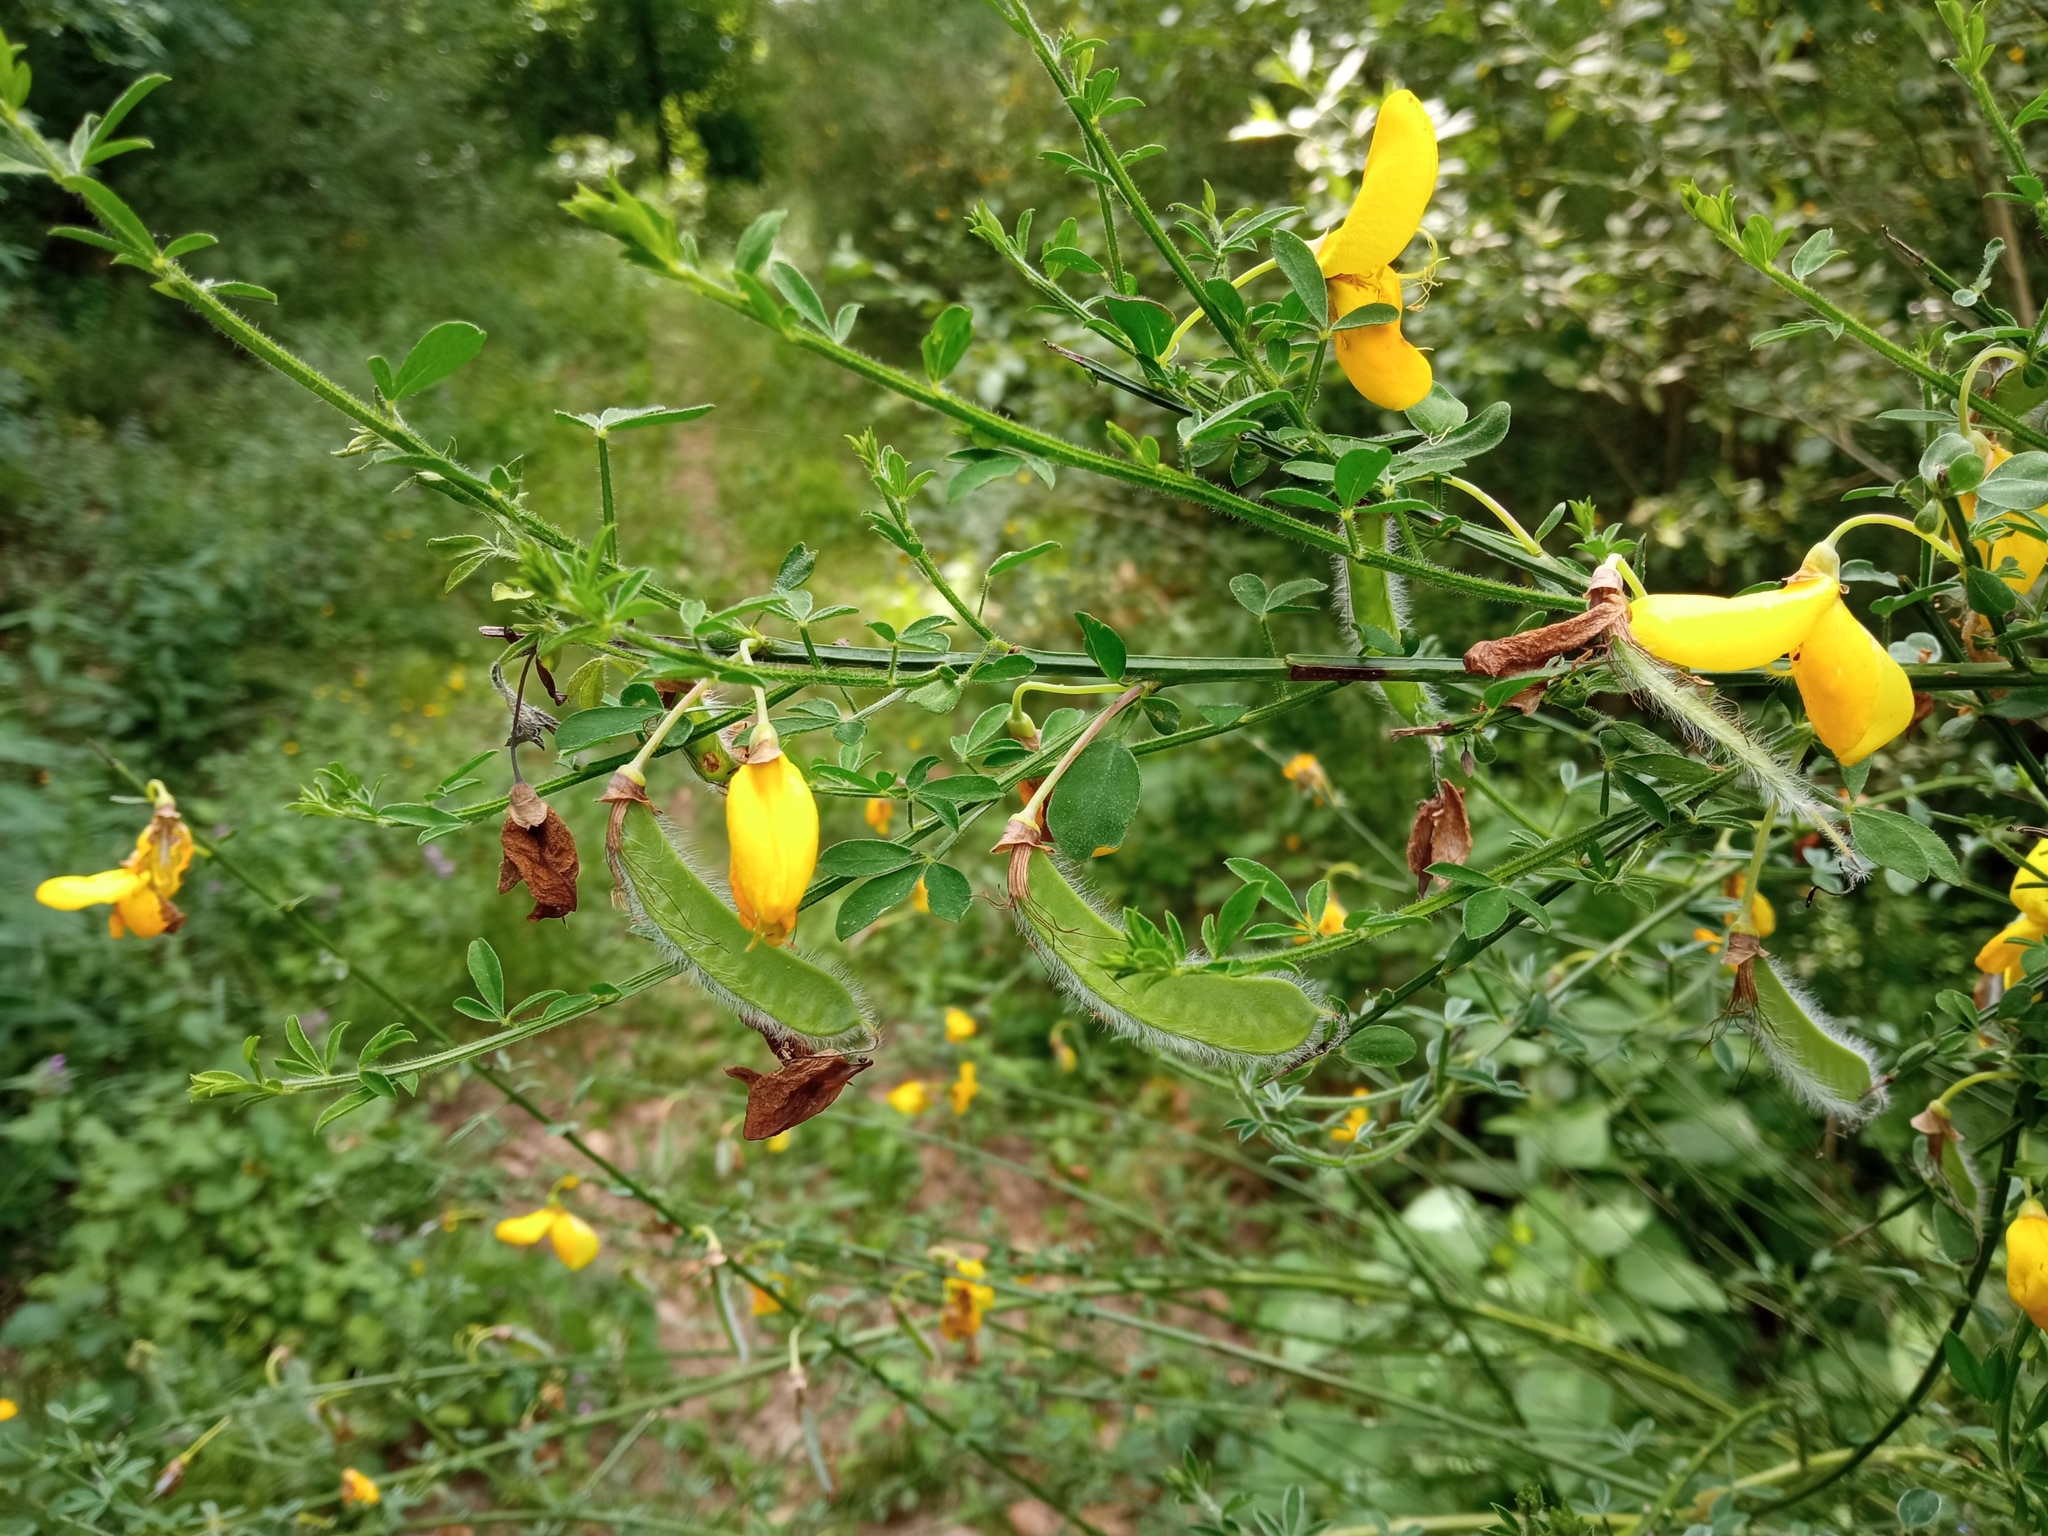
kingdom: Plantae
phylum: Tracheophyta
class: Magnoliopsida
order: Fabales
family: Fabaceae
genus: Cytisus
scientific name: Cytisus scoparius
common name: Scotch broom
